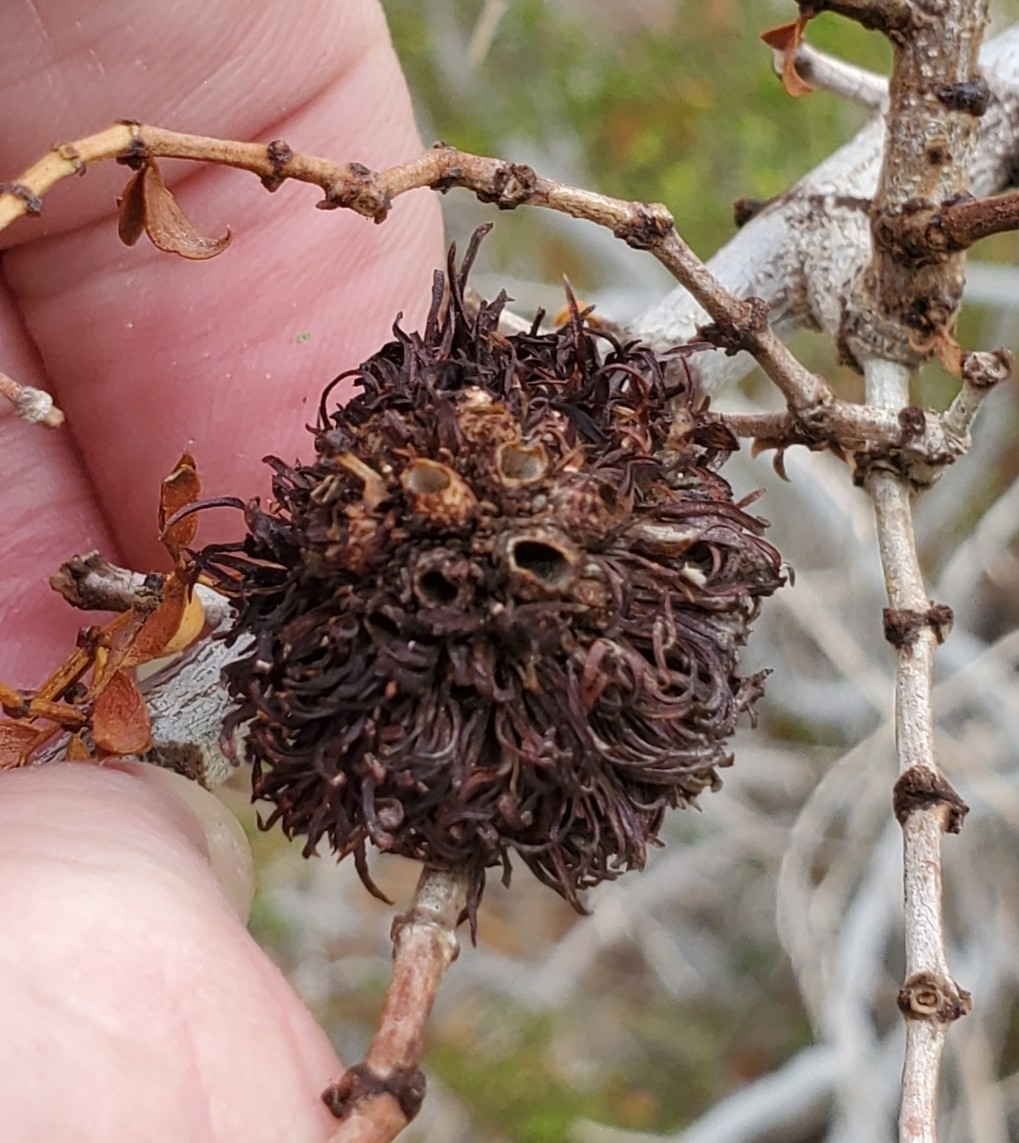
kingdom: Animalia
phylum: Arthropoda
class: Insecta
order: Diptera
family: Cecidomyiidae
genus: Asphondylia
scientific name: Asphondylia auripila
